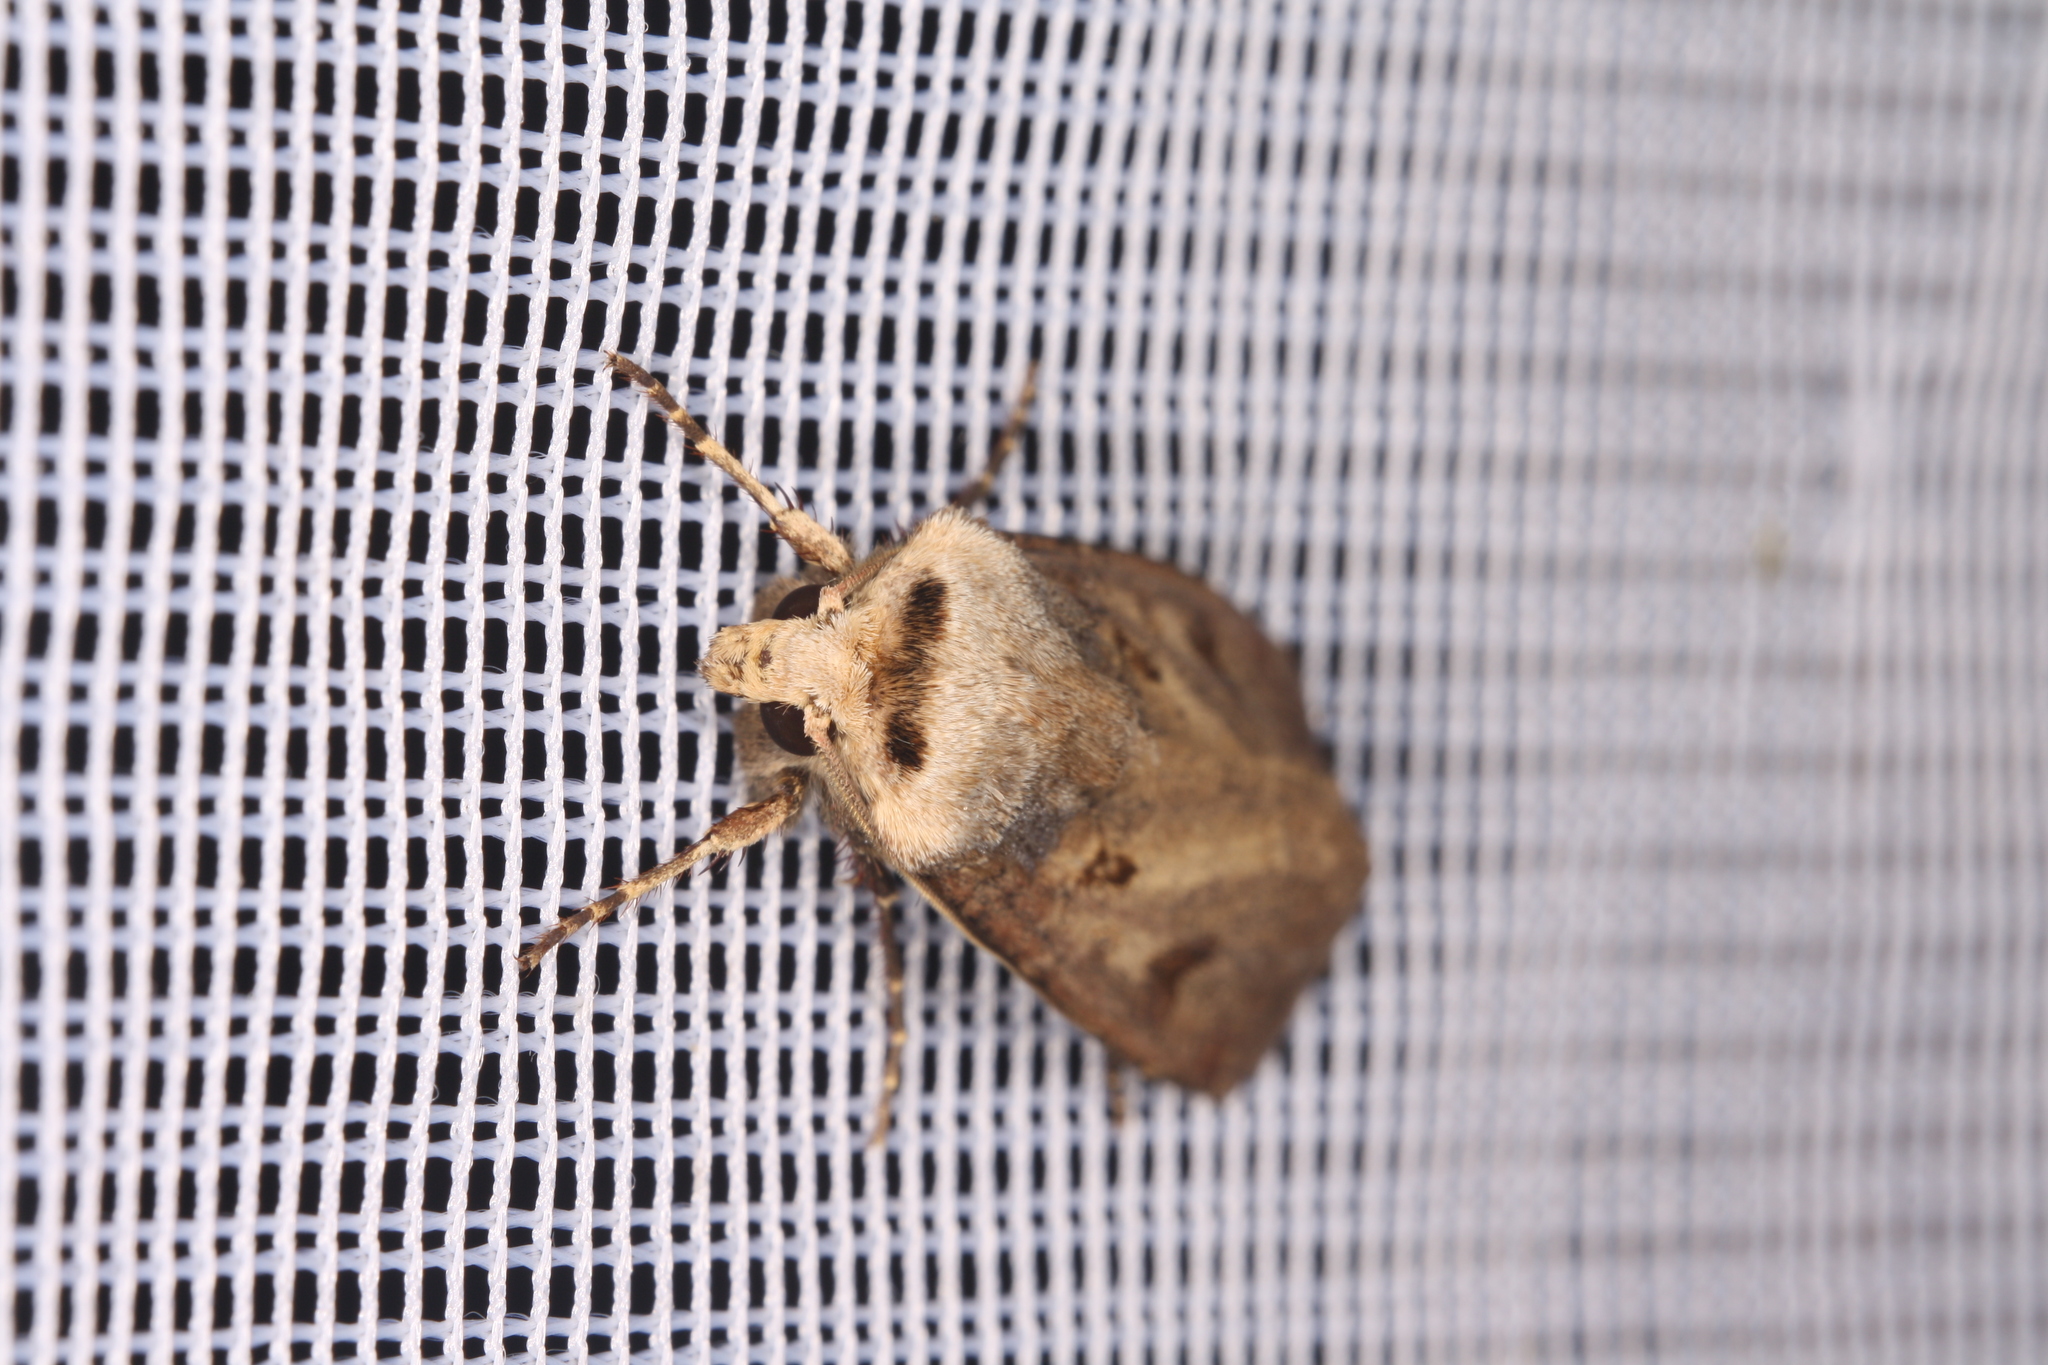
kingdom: Animalia
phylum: Arthropoda
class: Insecta
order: Lepidoptera
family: Noctuidae
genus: Agrotis
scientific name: Agrotis exclamationis
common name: Heart and dart
